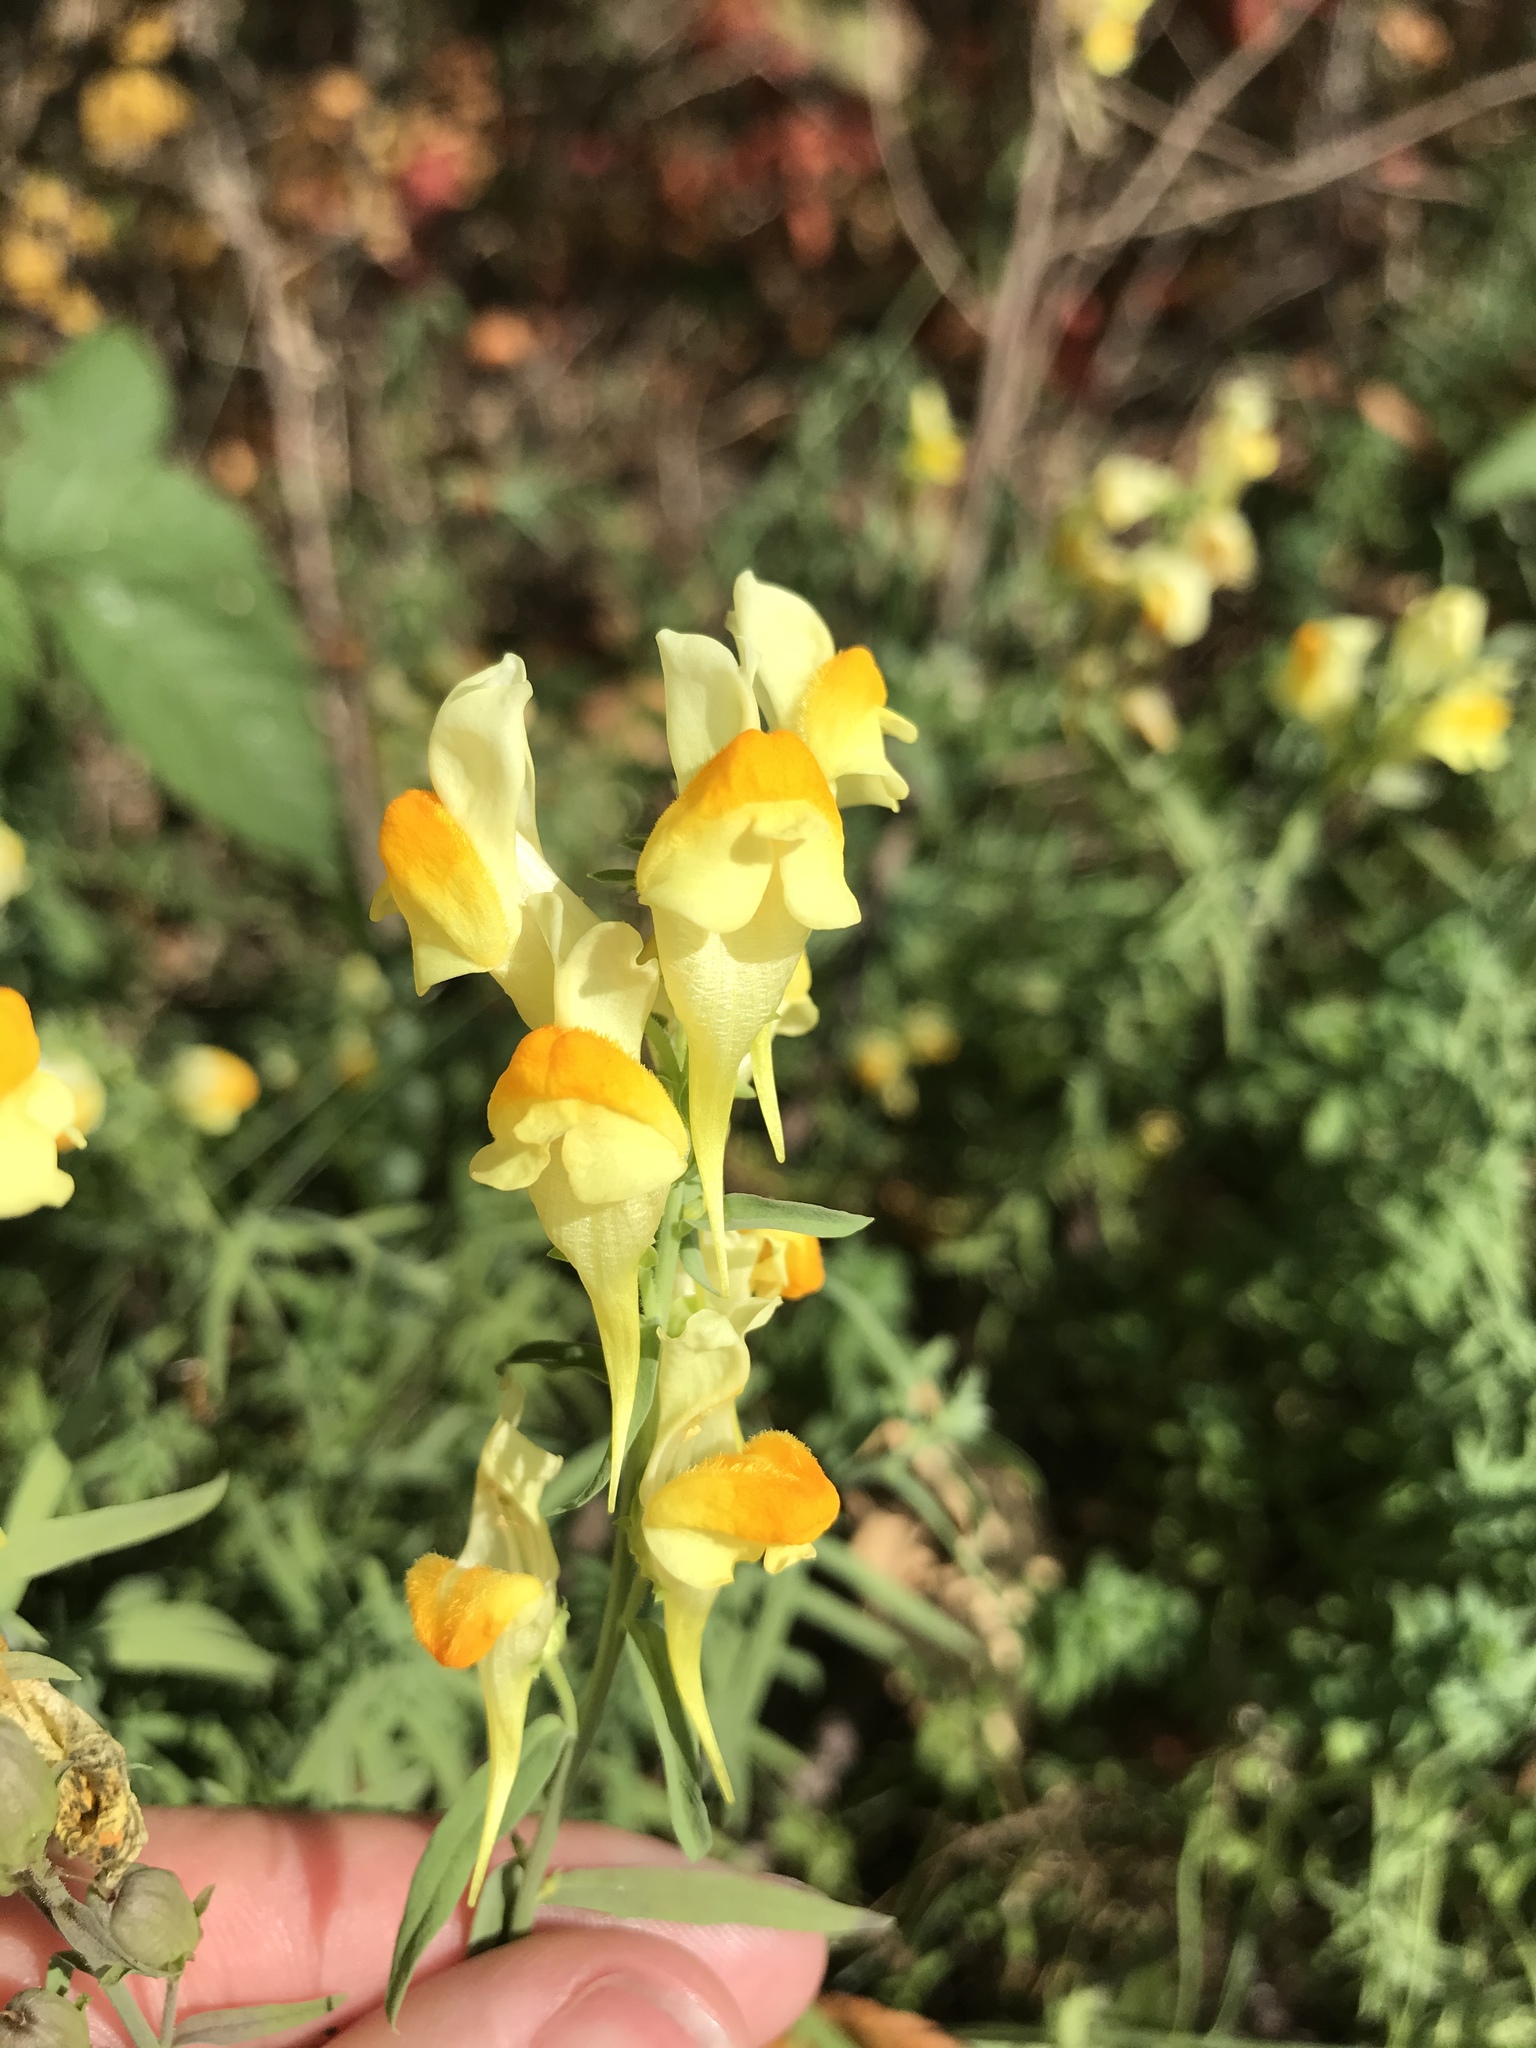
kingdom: Plantae
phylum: Tracheophyta
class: Magnoliopsida
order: Lamiales
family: Plantaginaceae
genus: Linaria
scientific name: Linaria vulgaris
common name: Butter and eggs
